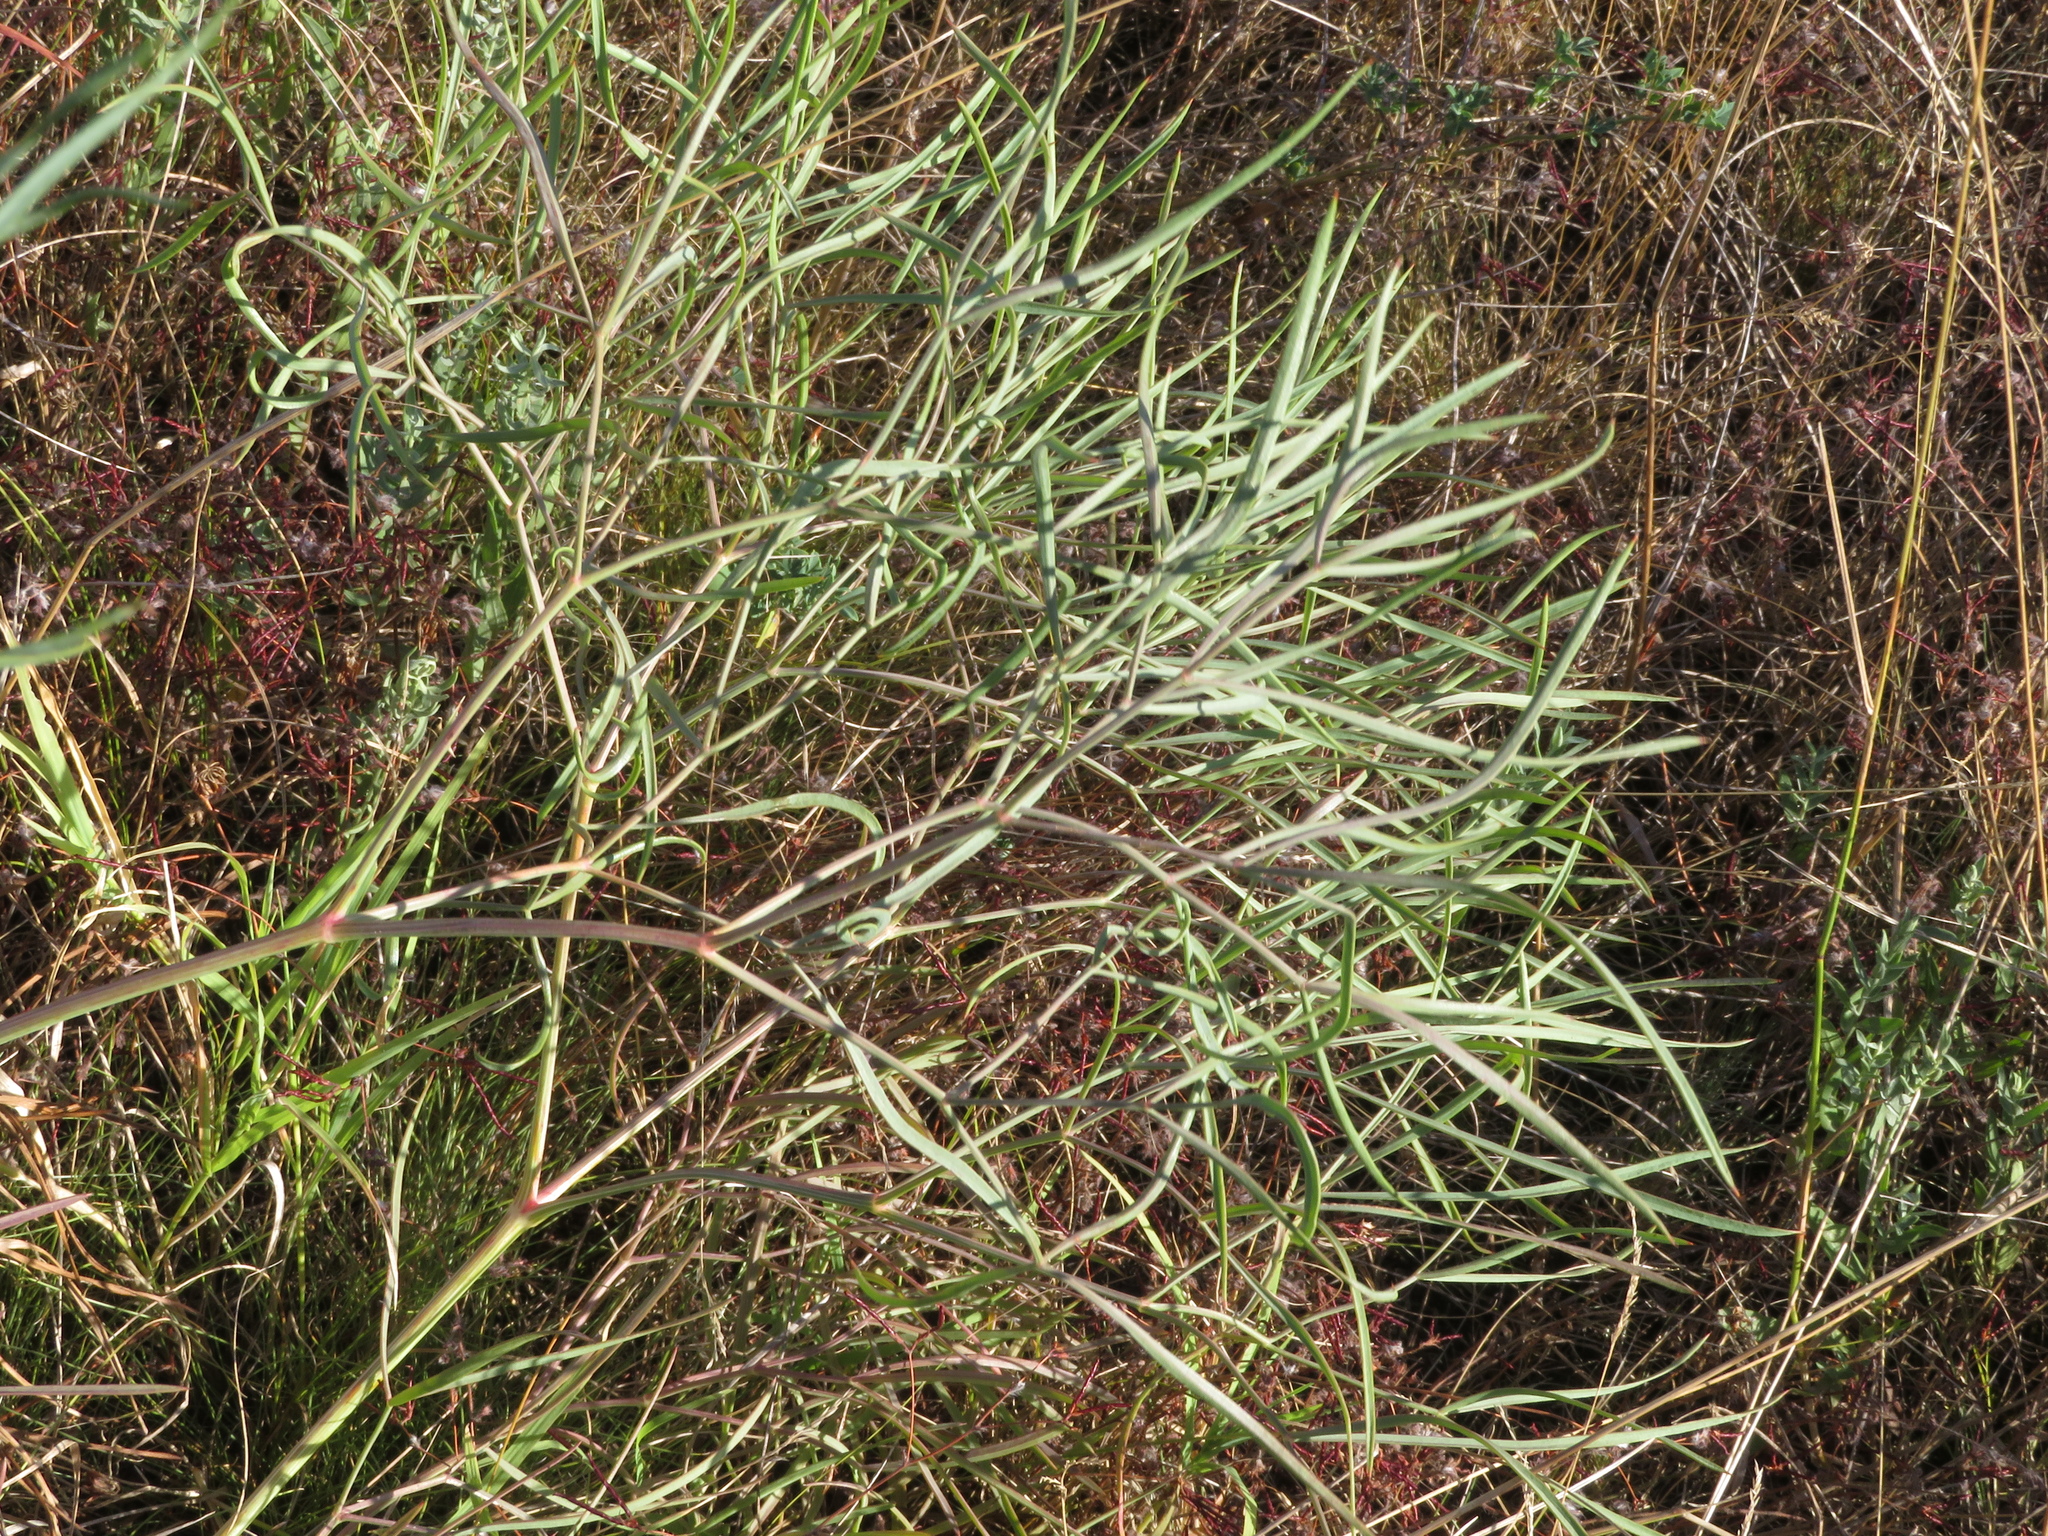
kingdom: Plantae
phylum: Tracheophyta
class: Magnoliopsida
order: Apiales
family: Apiaceae
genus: Peucedanum
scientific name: Peucedanum officinale
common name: Sulphurweed
